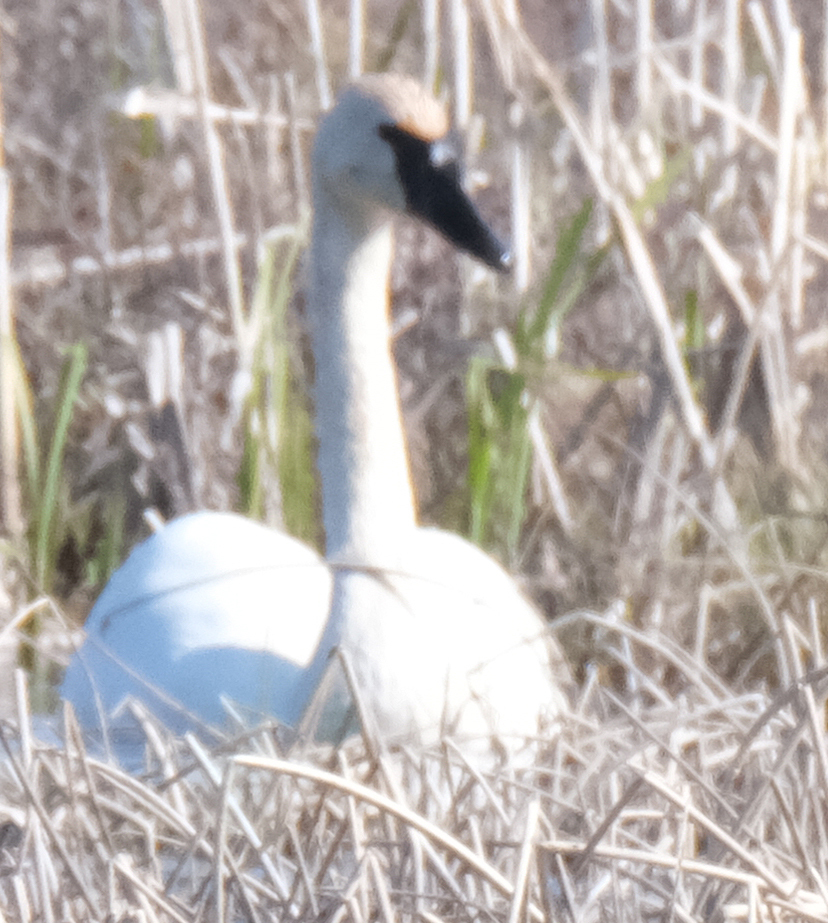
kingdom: Animalia
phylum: Chordata
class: Aves
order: Anseriformes
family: Anatidae
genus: Cygnus
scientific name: Cygnus buccinator
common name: Trumpeter swan
